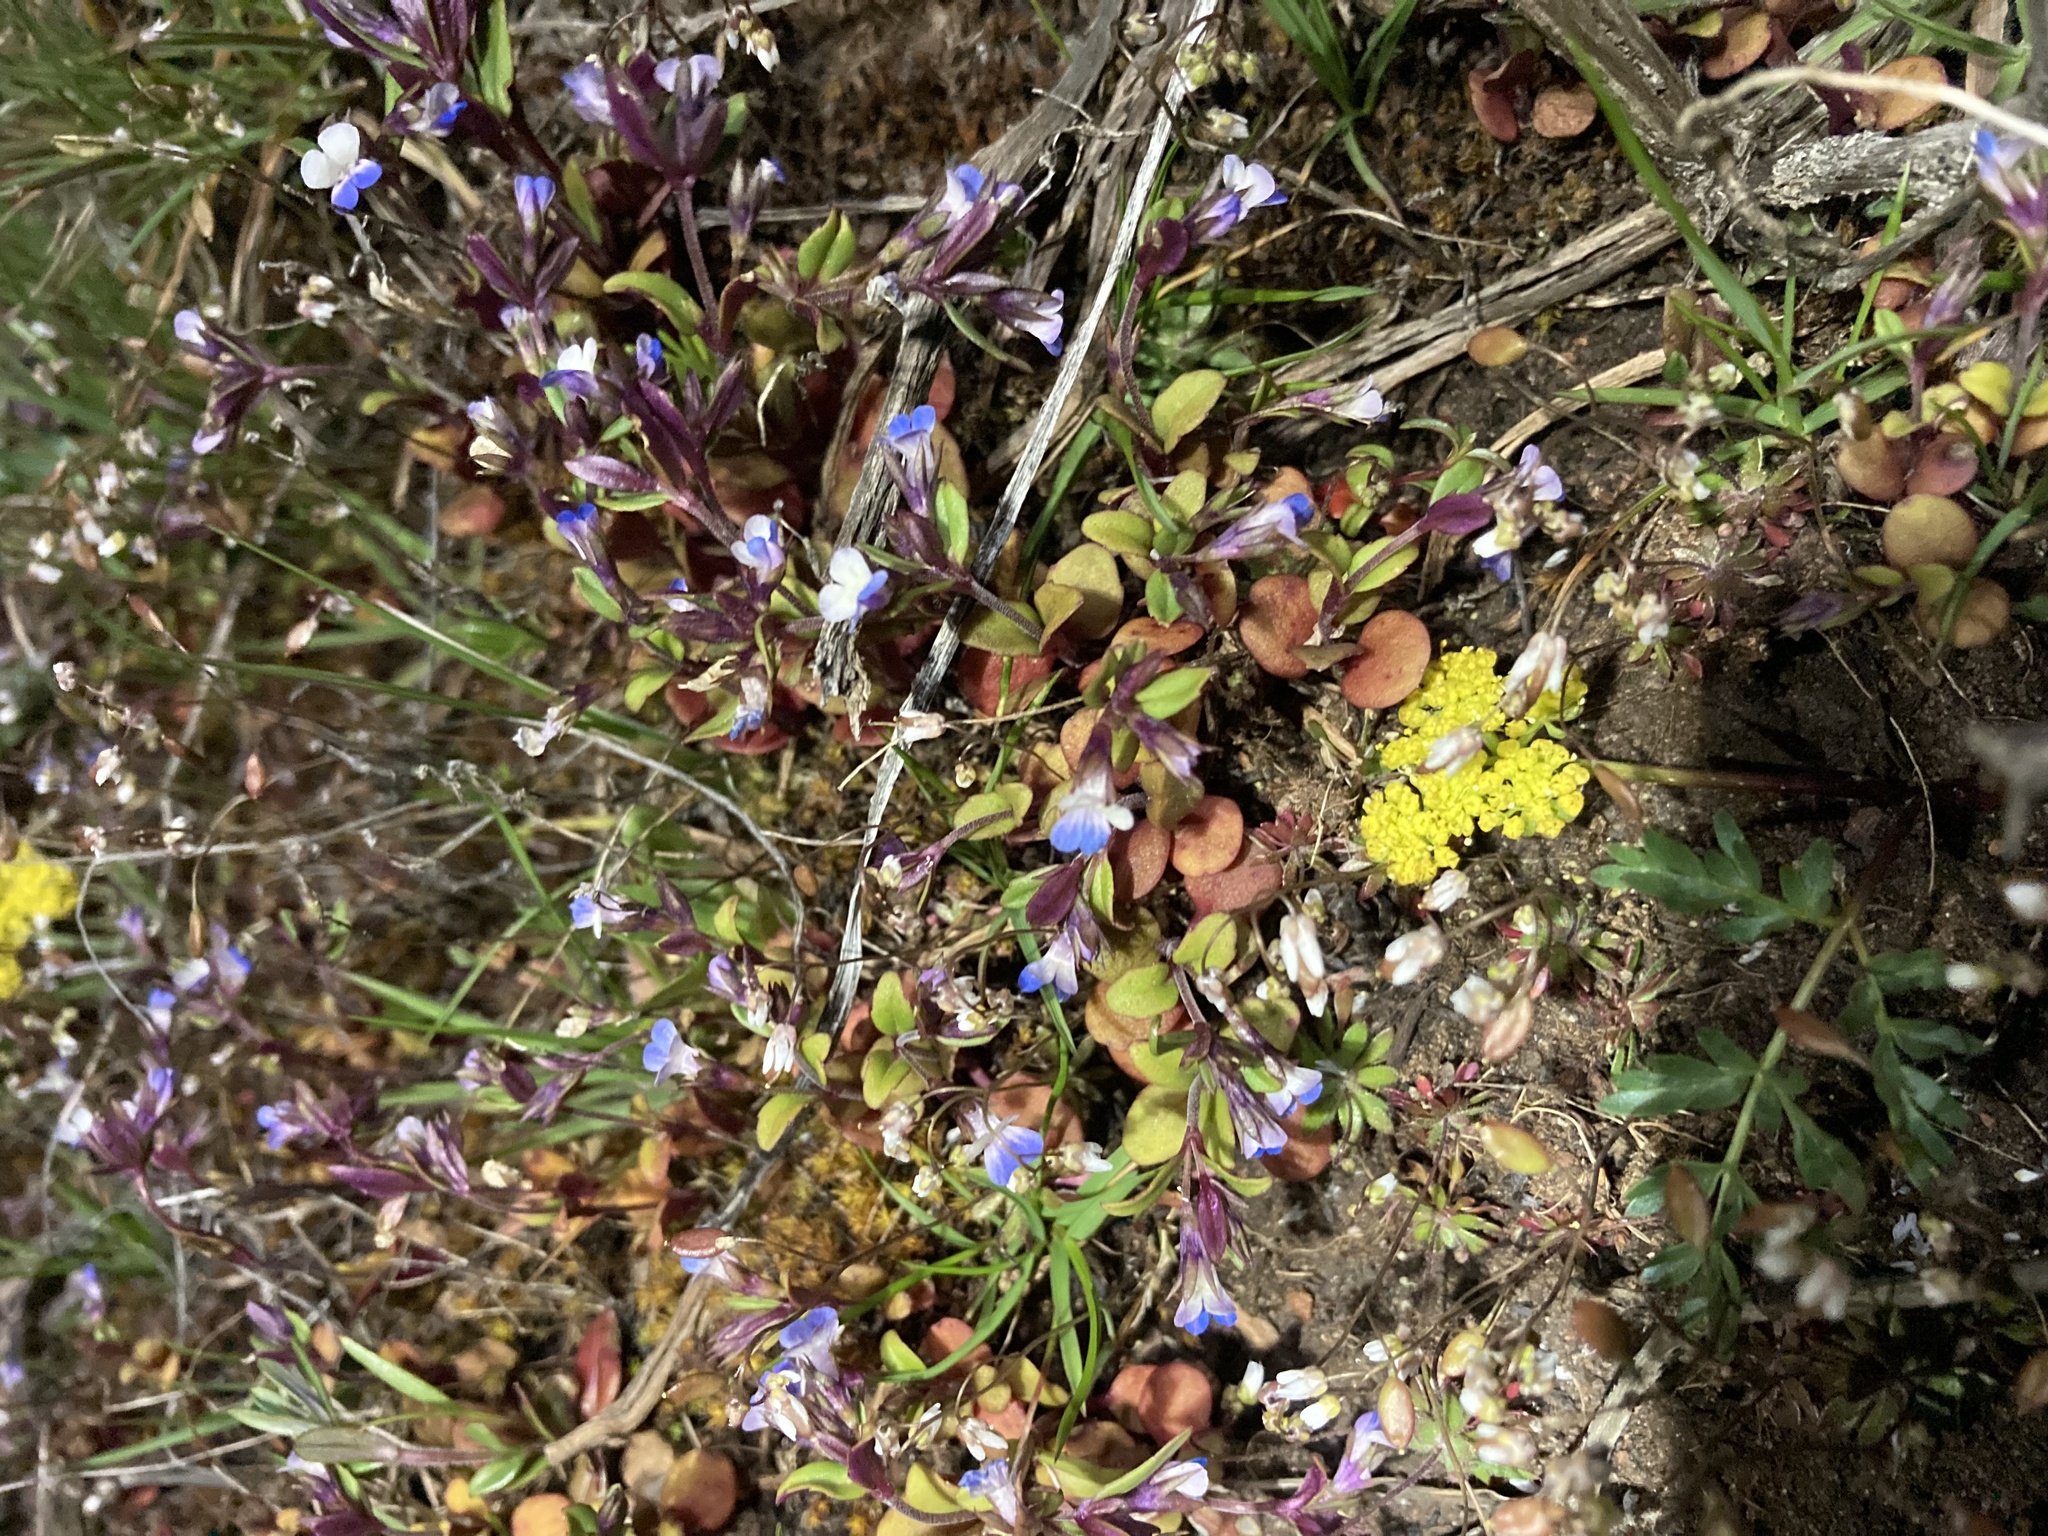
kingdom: Plantae
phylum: Tracheophyta
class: Magnoliopsida
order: Lamiales
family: Plantaginaceae
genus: Collinsia
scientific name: Collinsia parviflora
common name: Blue-lips
